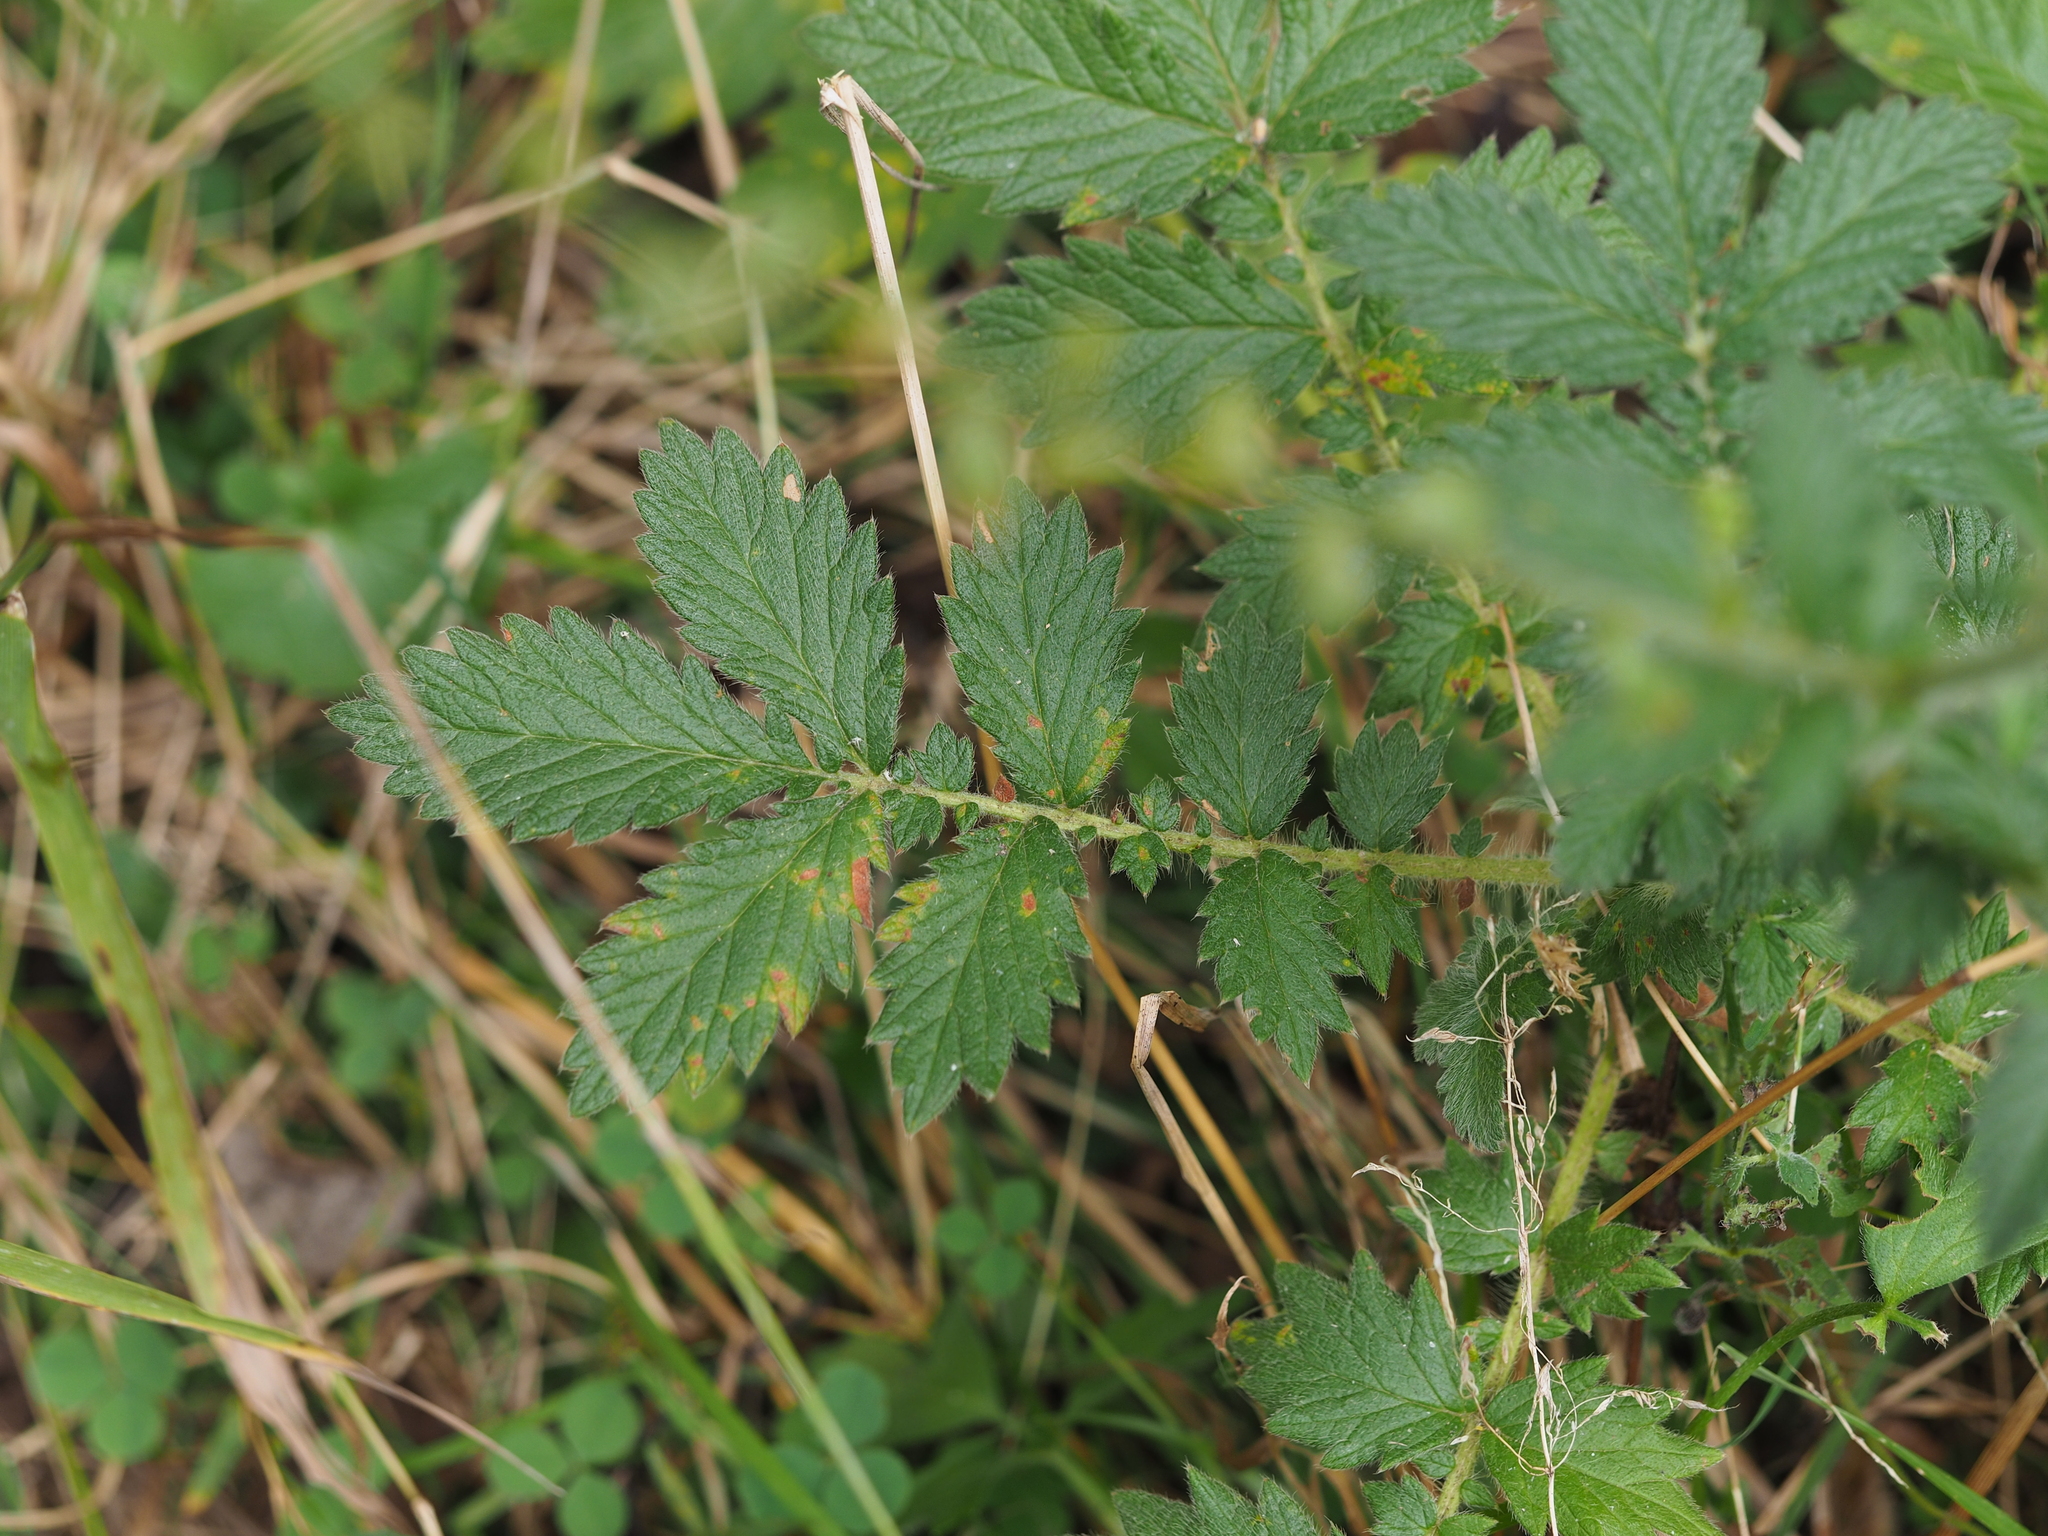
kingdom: Fungi
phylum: Basidiomycota
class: Pucciniomycetes
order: Pucciniales
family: Cronartiaceae
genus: Quasipucciniastrum
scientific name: Quasipucciniastrum ochraceum
